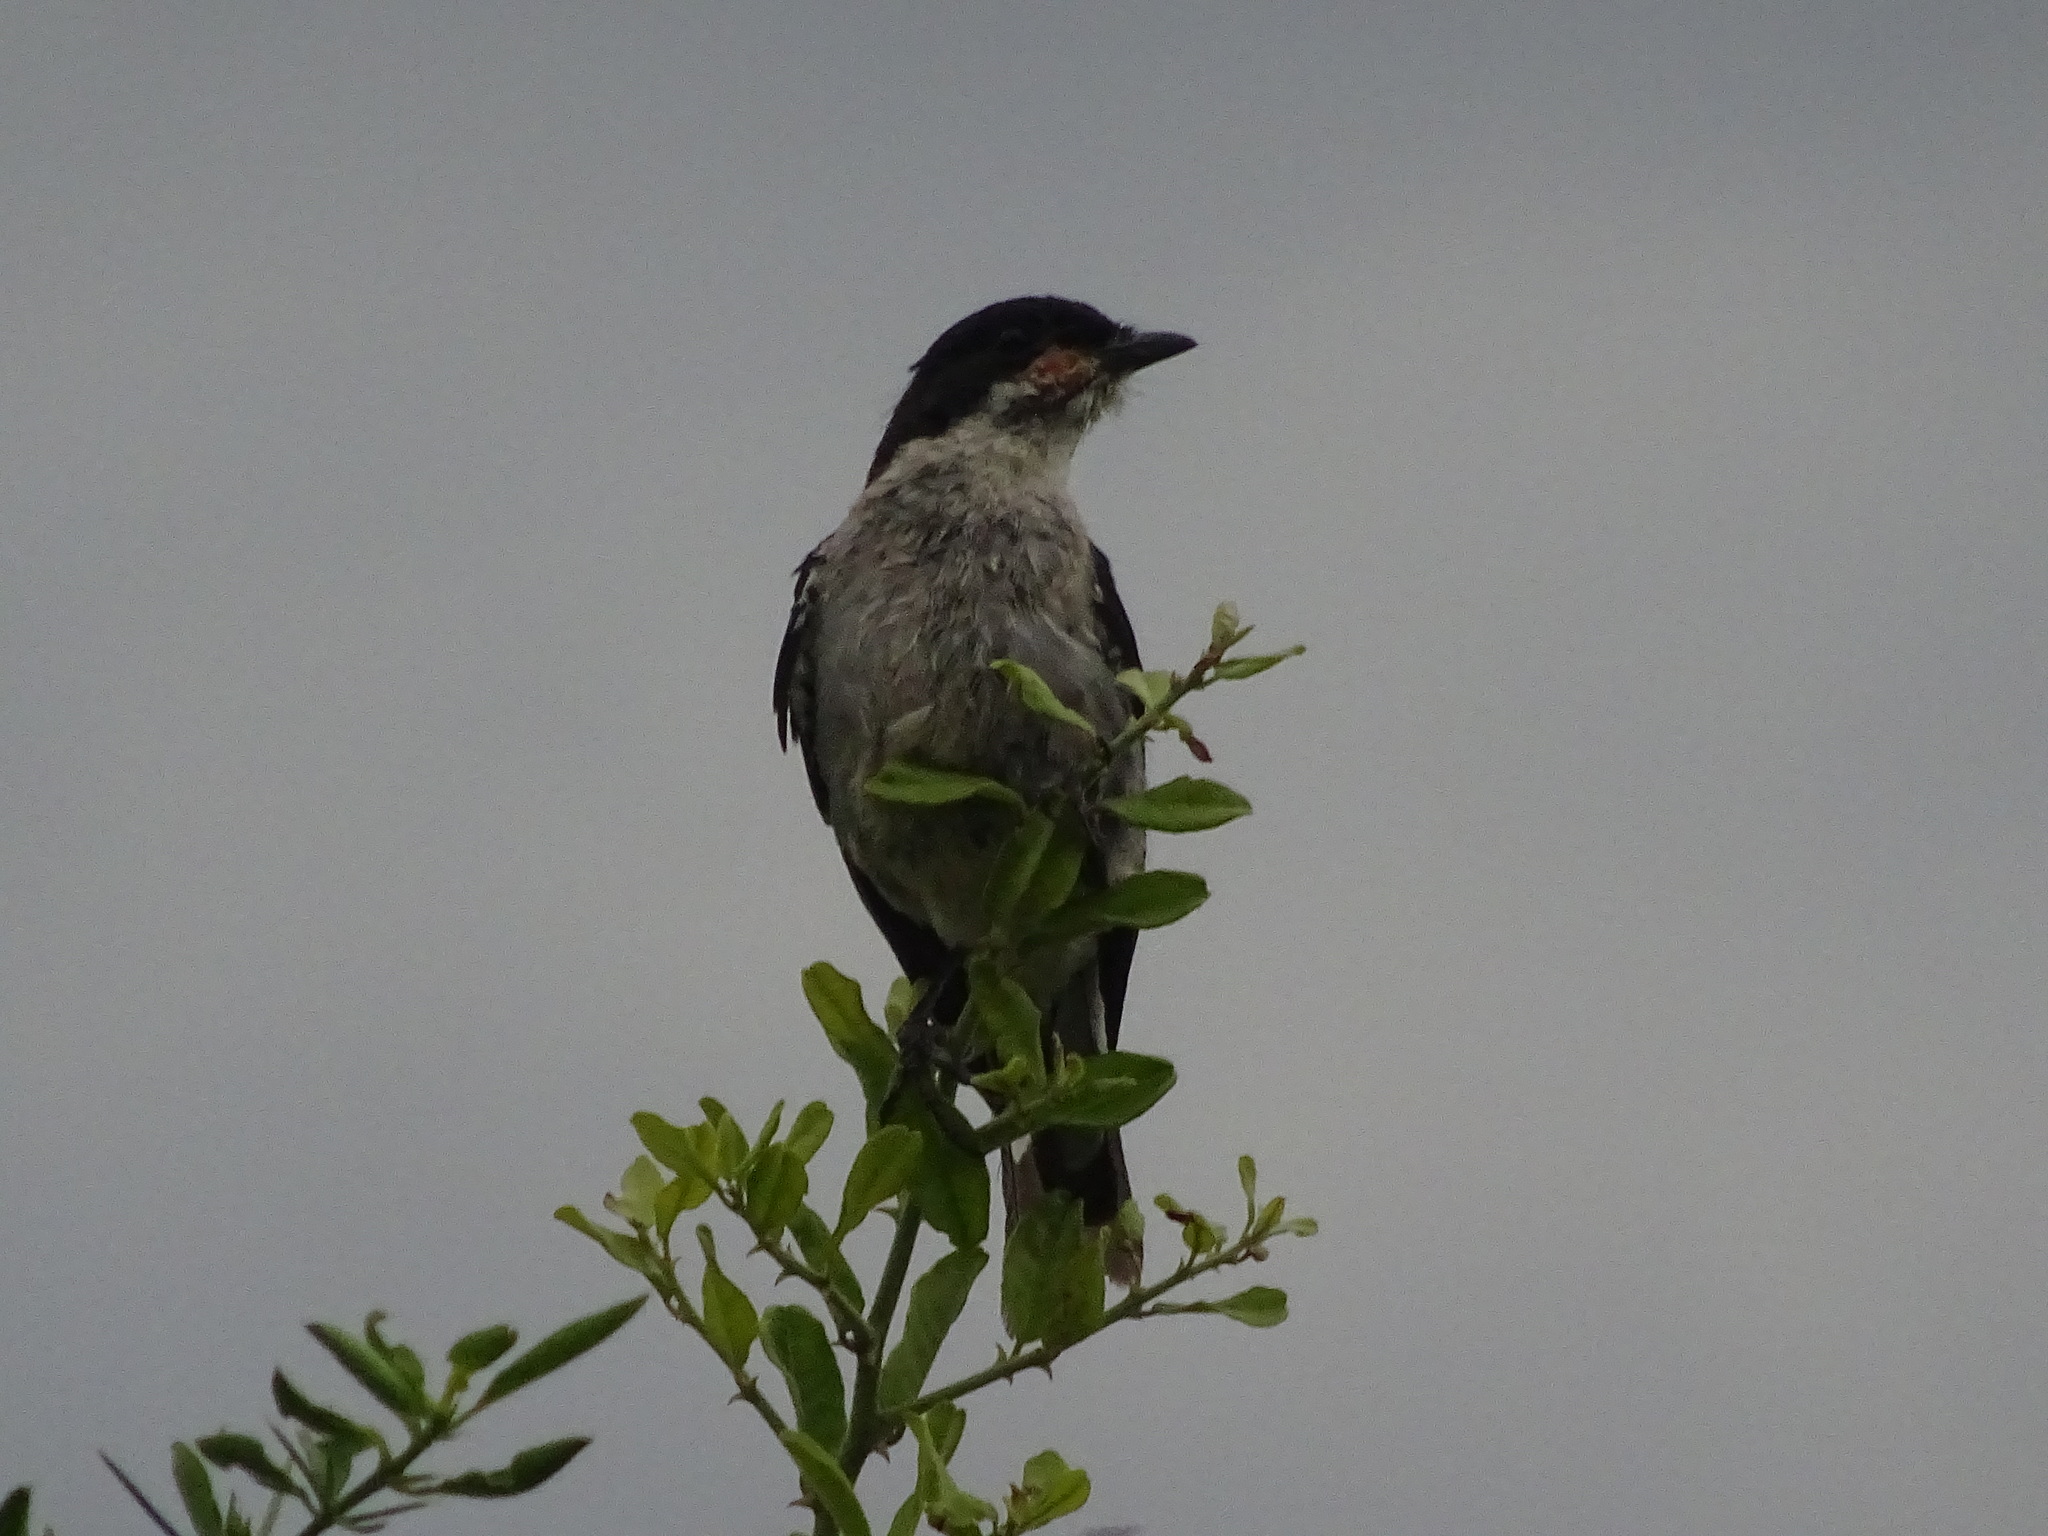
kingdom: Animalia
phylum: Chordata
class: Aves
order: Passeriformes
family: Muscicapidae
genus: Sigelus
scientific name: Sigelus silens
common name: Fiscal flycatcher
